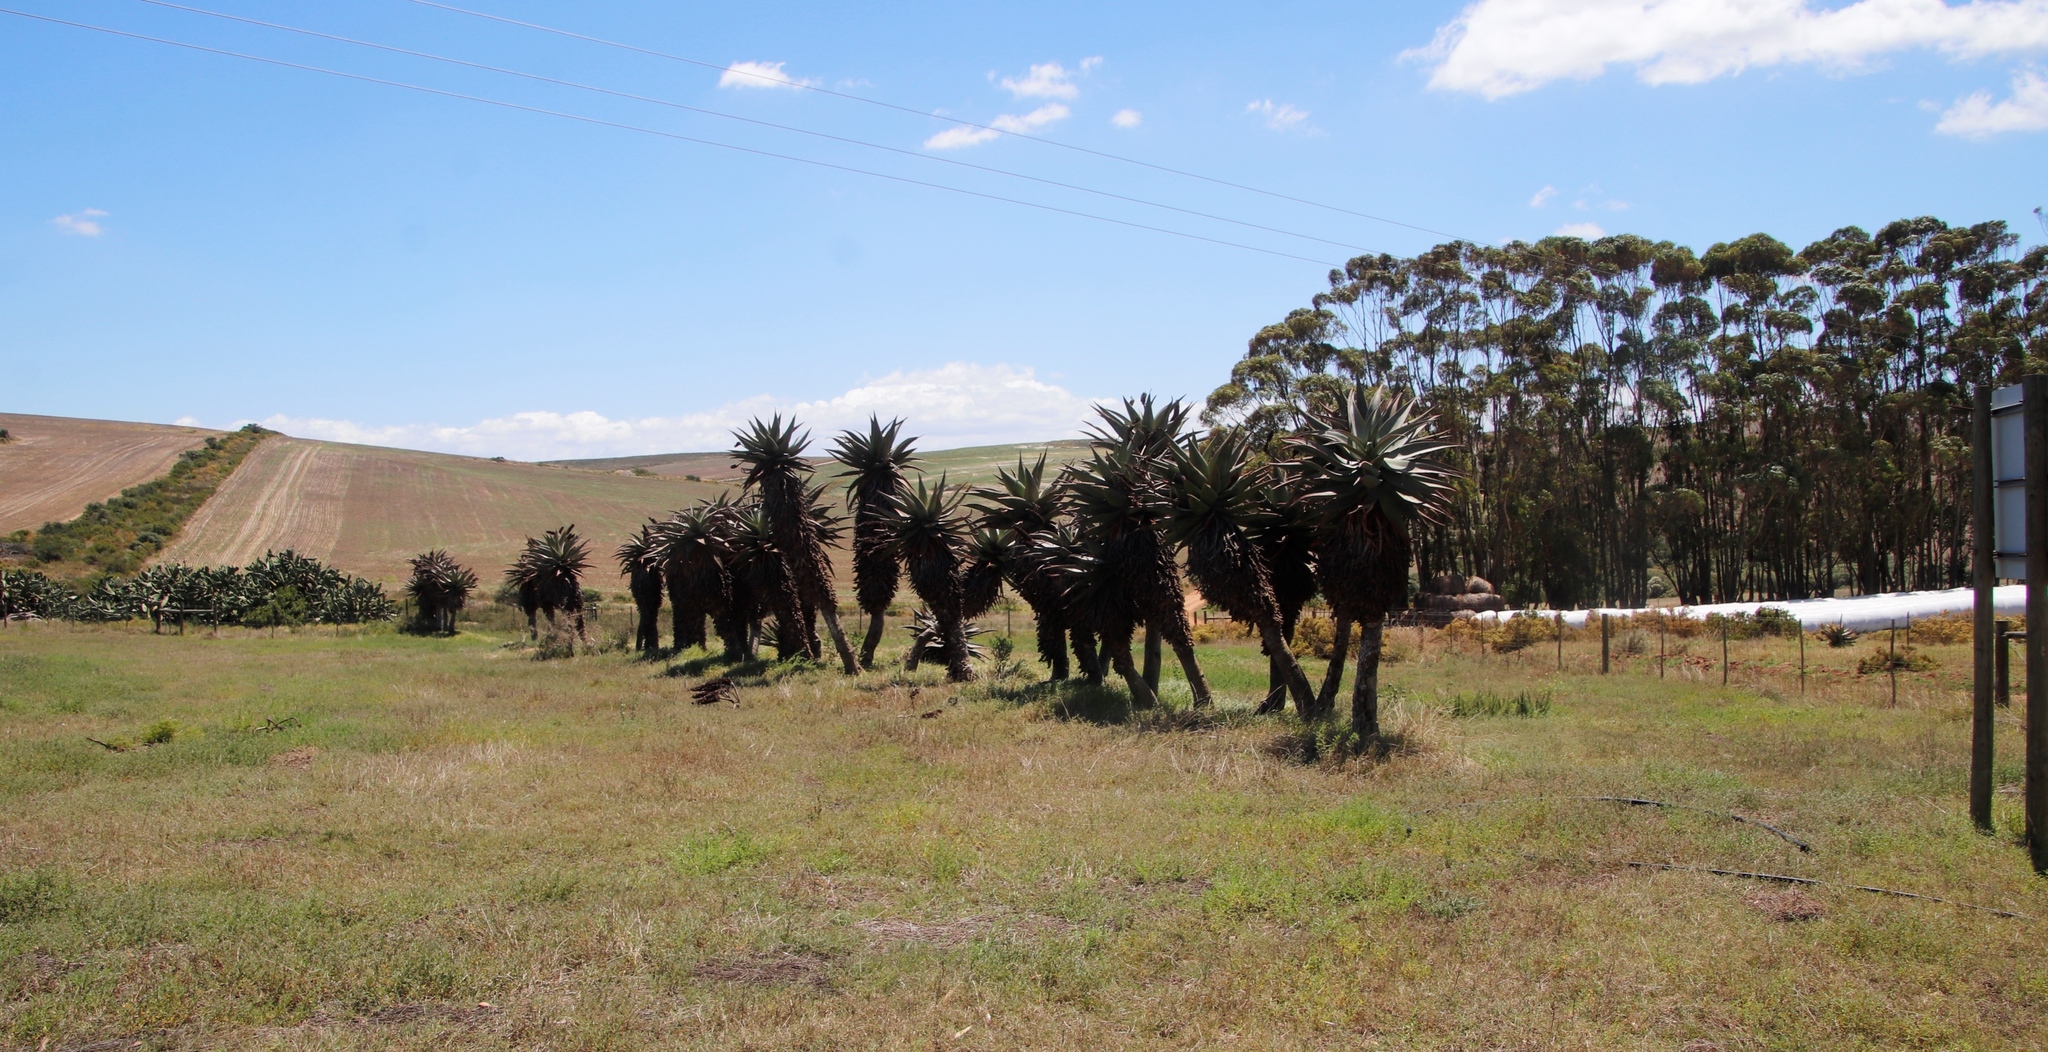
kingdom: Plantae
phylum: Tracheophyta
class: Liliopsida
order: Asparagales
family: Asphodelaceae
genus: Aloe
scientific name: Aloe ferox
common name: Bitter aloe
